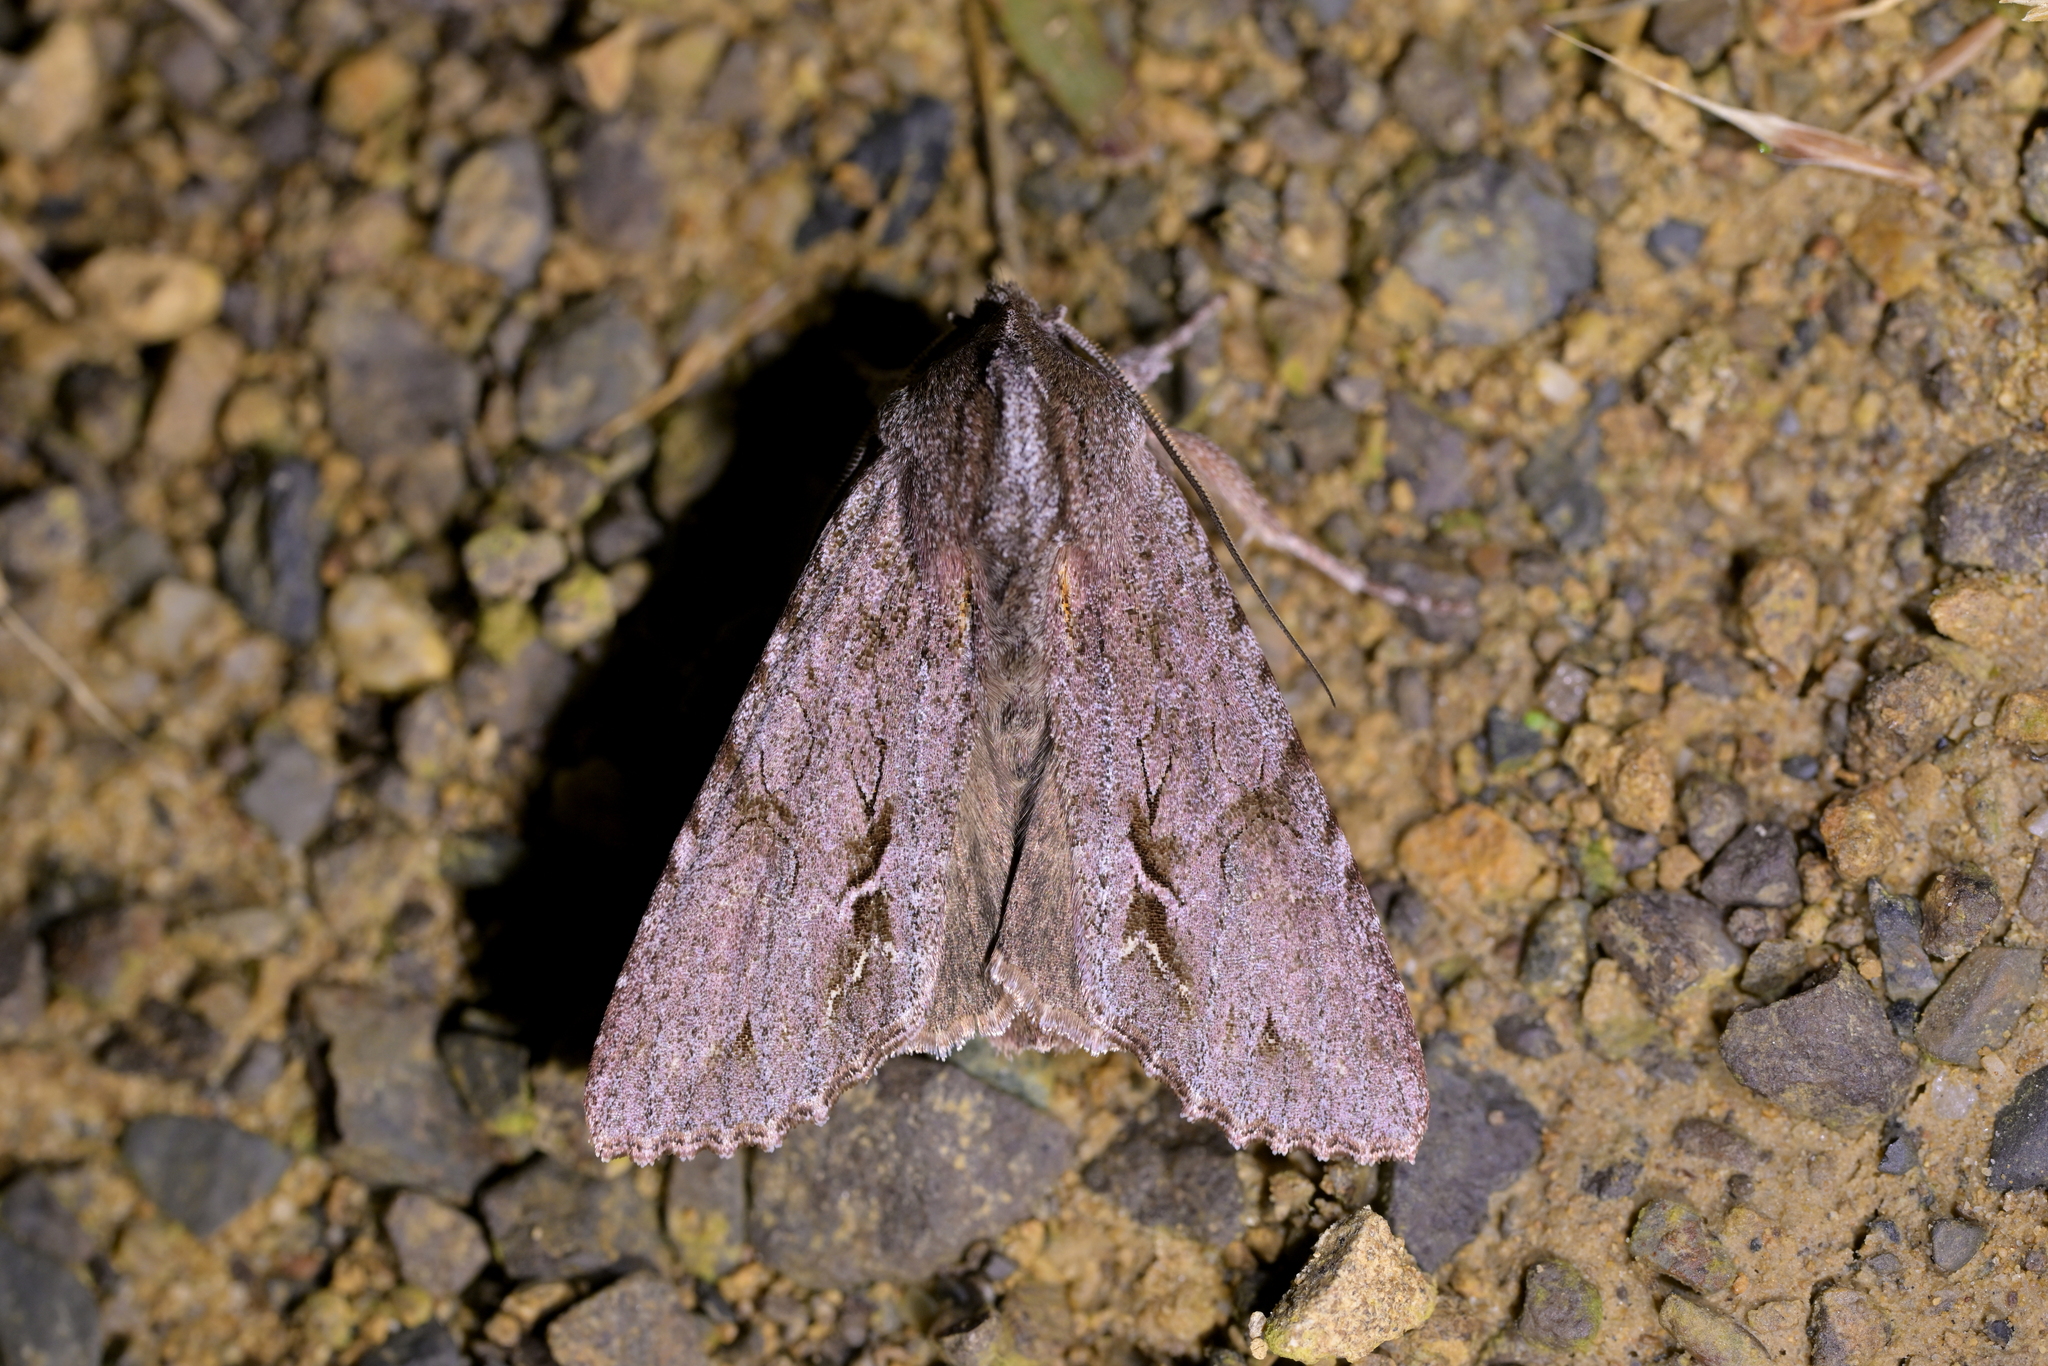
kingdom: Animalia
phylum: Arthropoda
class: Insecta
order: Lepidoptera
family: Noctuidae
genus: Ichneutica
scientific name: Ichneutica
